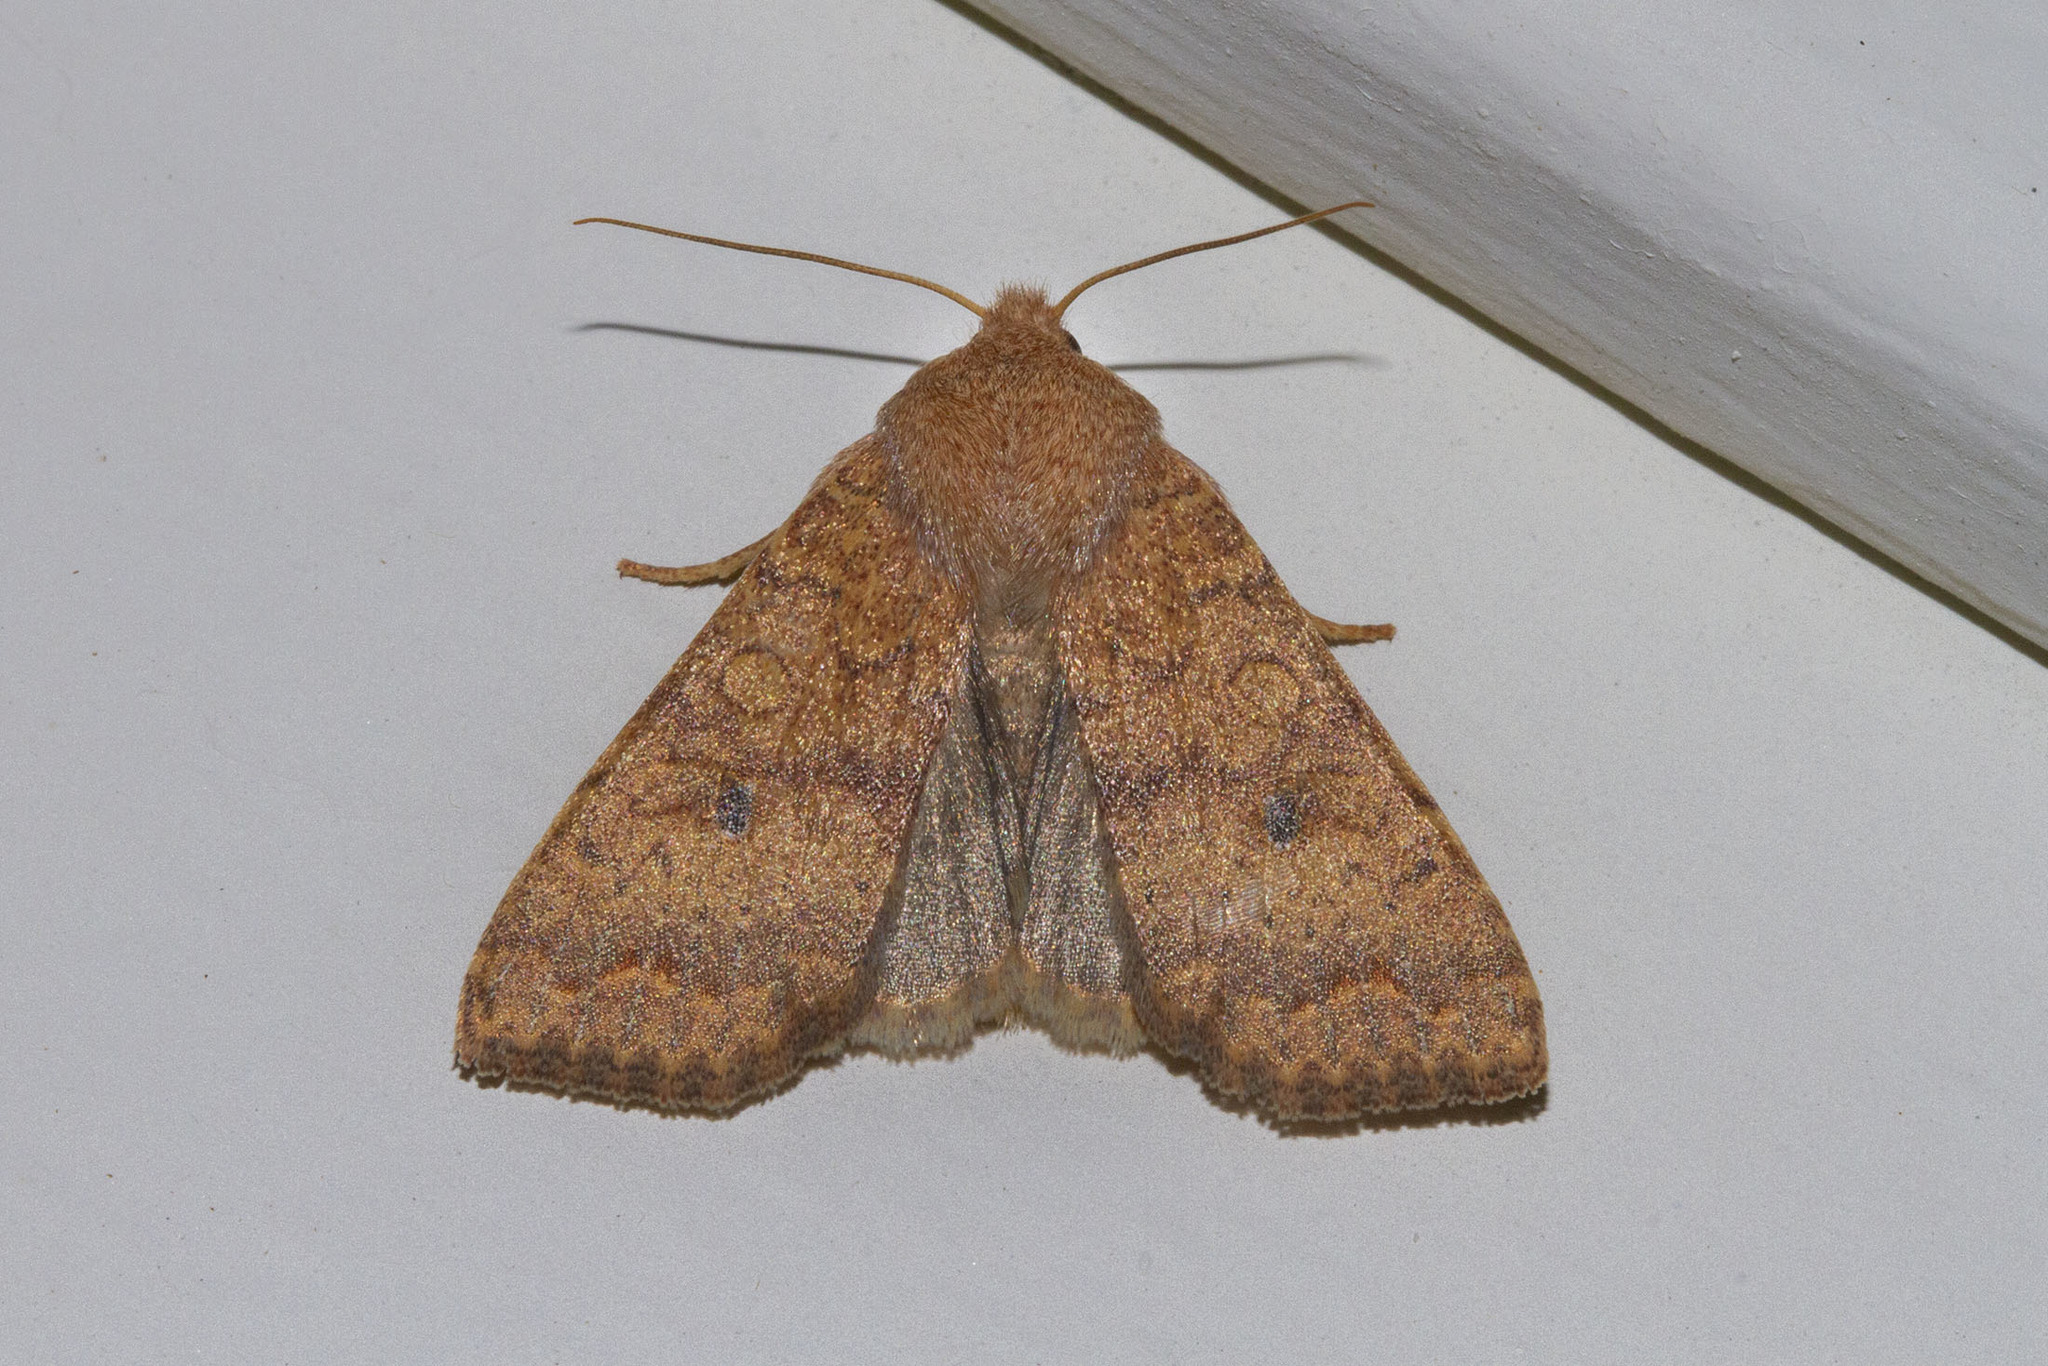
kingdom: Animalia
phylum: Arthropoda
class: Insecta
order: Lepidoptera
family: Noctuidae
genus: Agrochola
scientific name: Agrochola bicolorago
